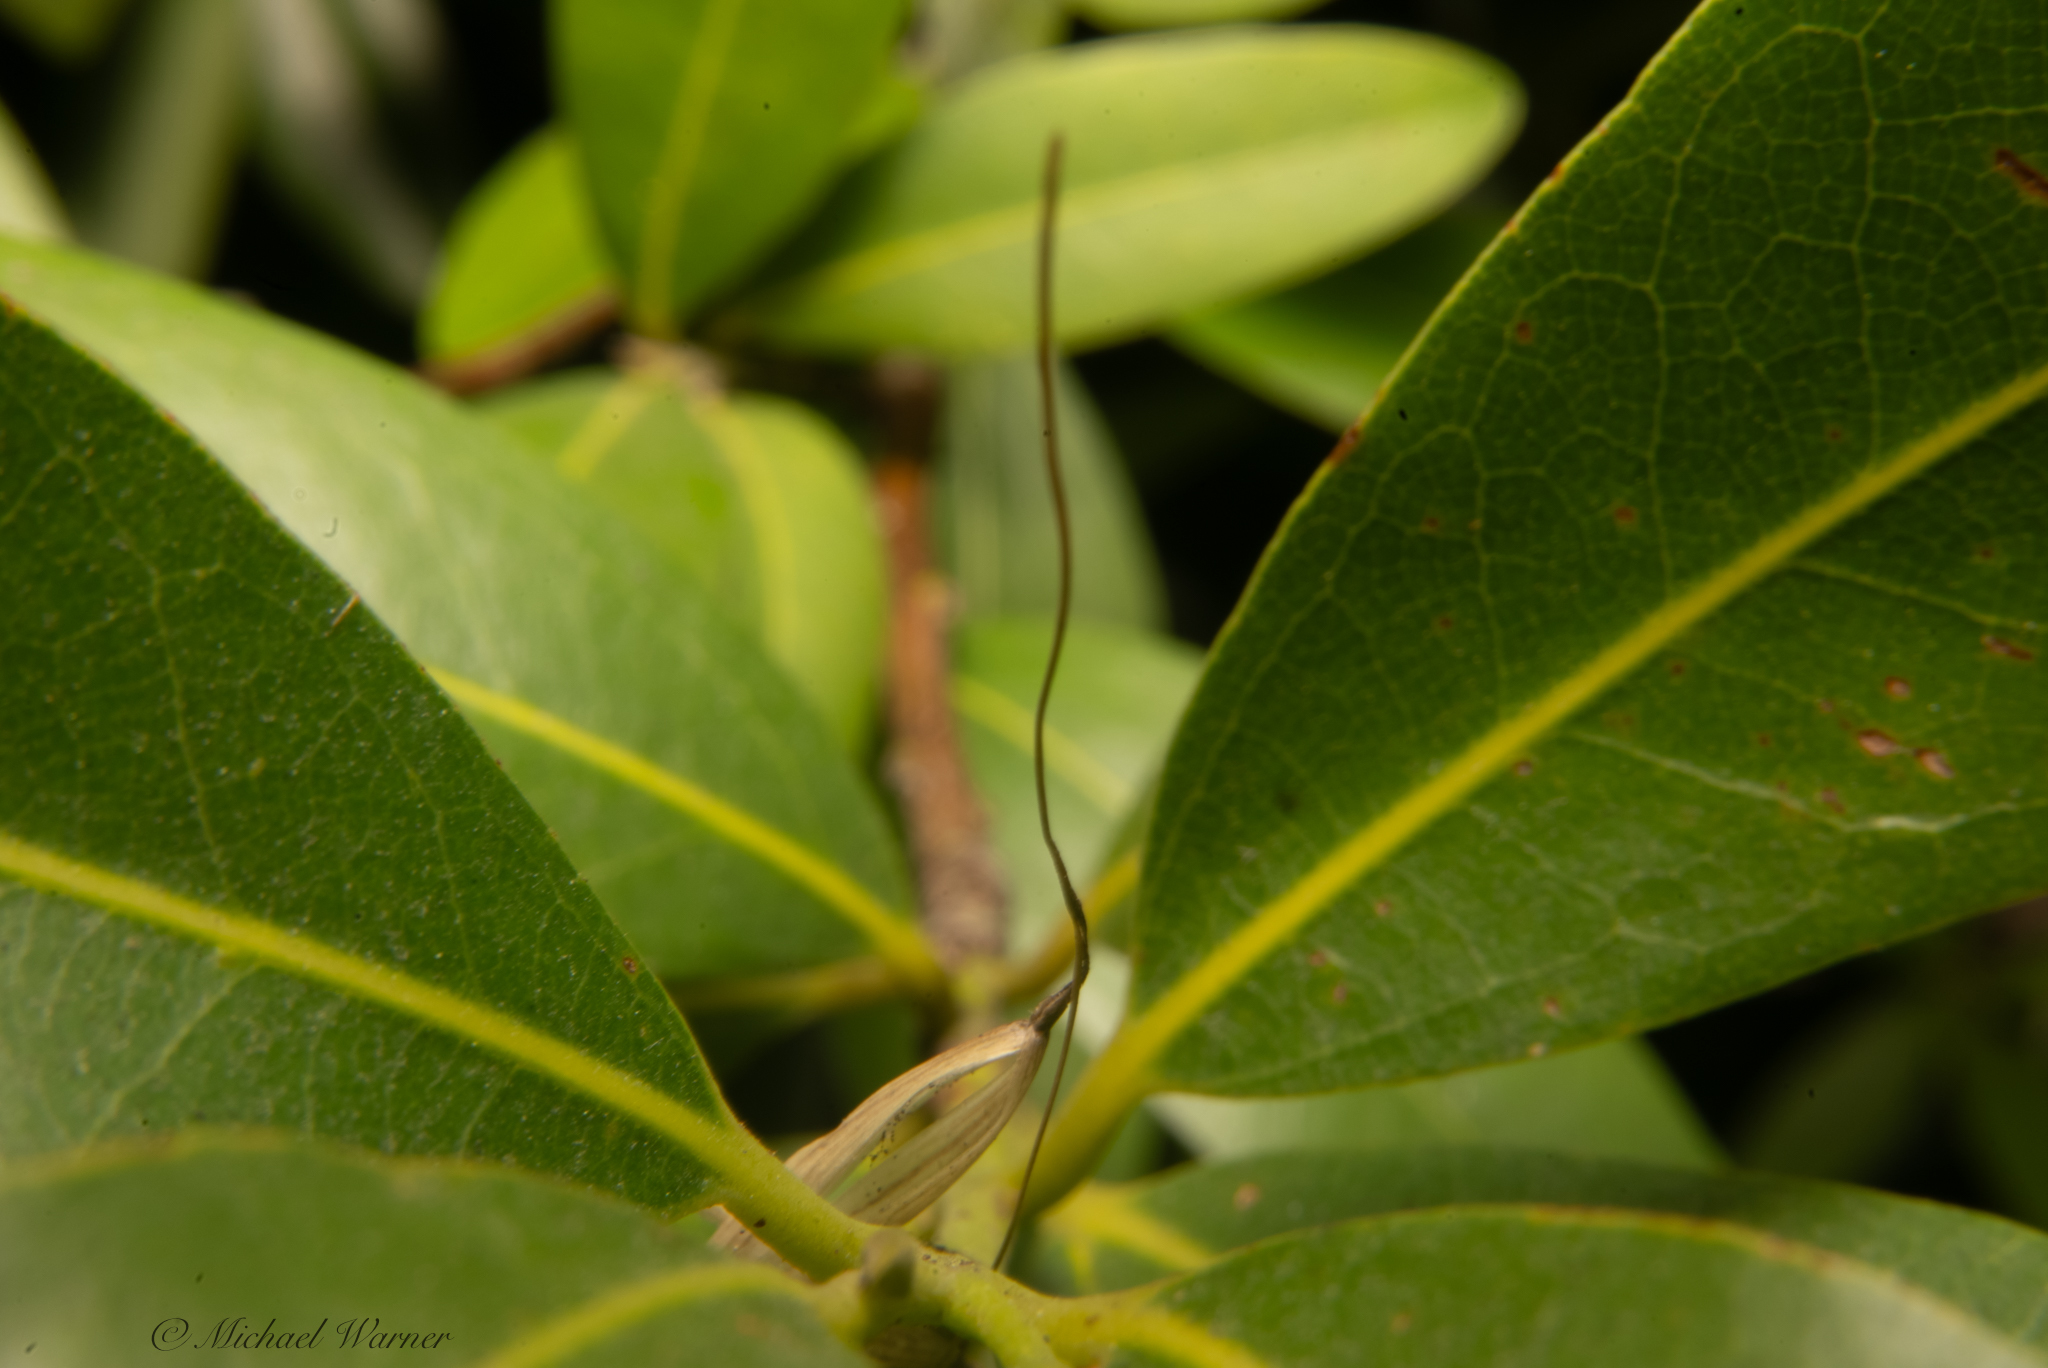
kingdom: Plantae
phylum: Tracheophyta
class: Magnoliopsida
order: Laurales
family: Lauraceae
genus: Umbellularia
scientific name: Umbellularia californica
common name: California bay
